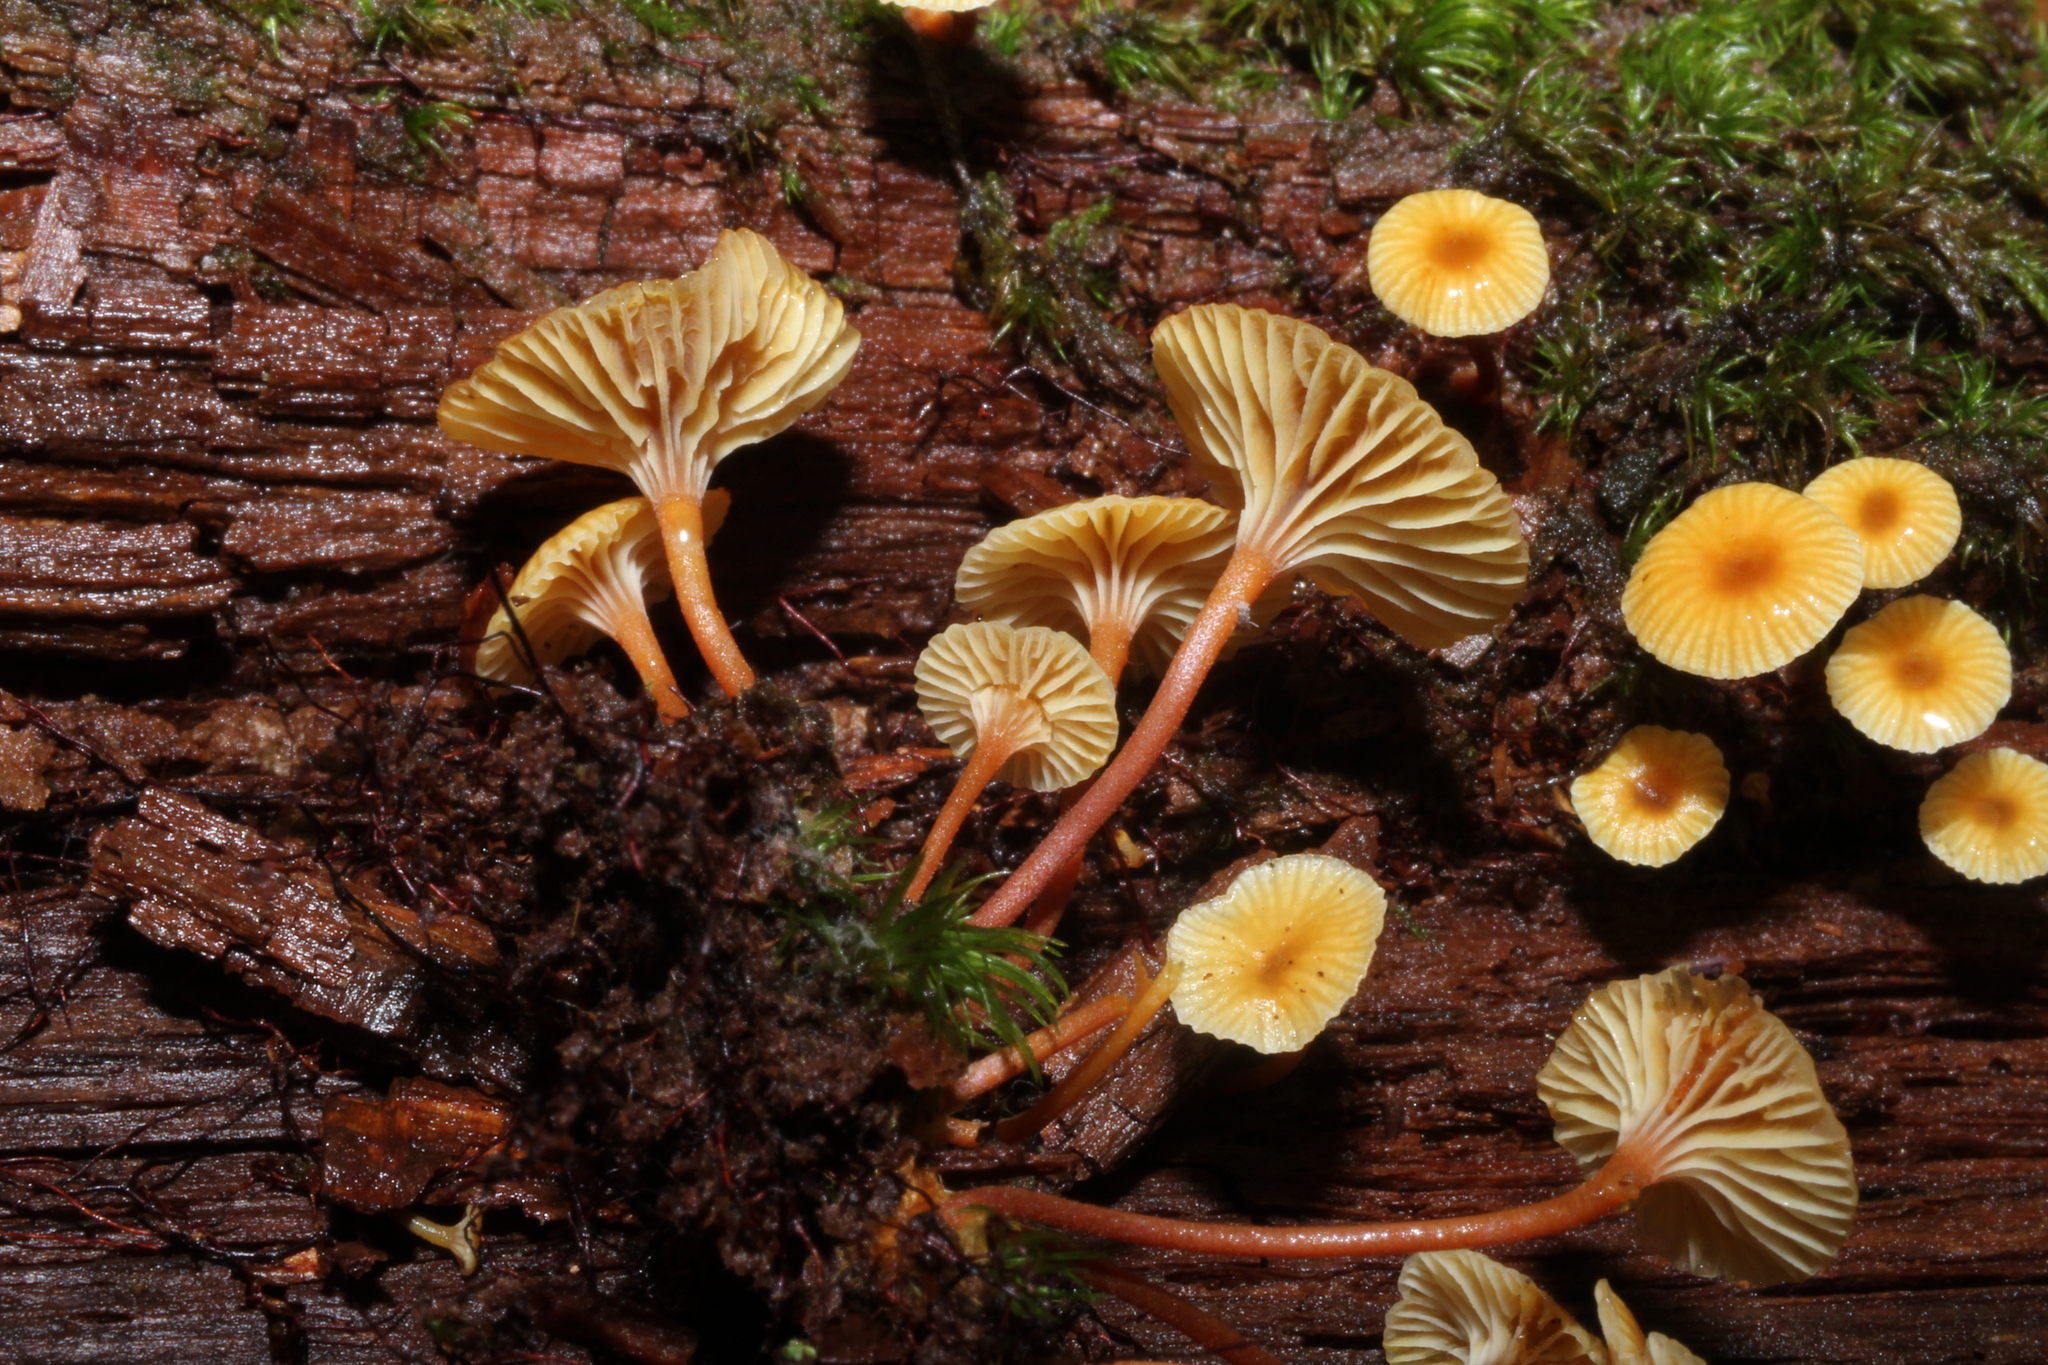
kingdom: Fungi
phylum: Basidiomycota
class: Agaricomycetes
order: Agaricales
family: Mycenaceae
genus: Xeromphalina
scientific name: Xeromphalina kauffmanii
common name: Cross-veined troop mushroom
